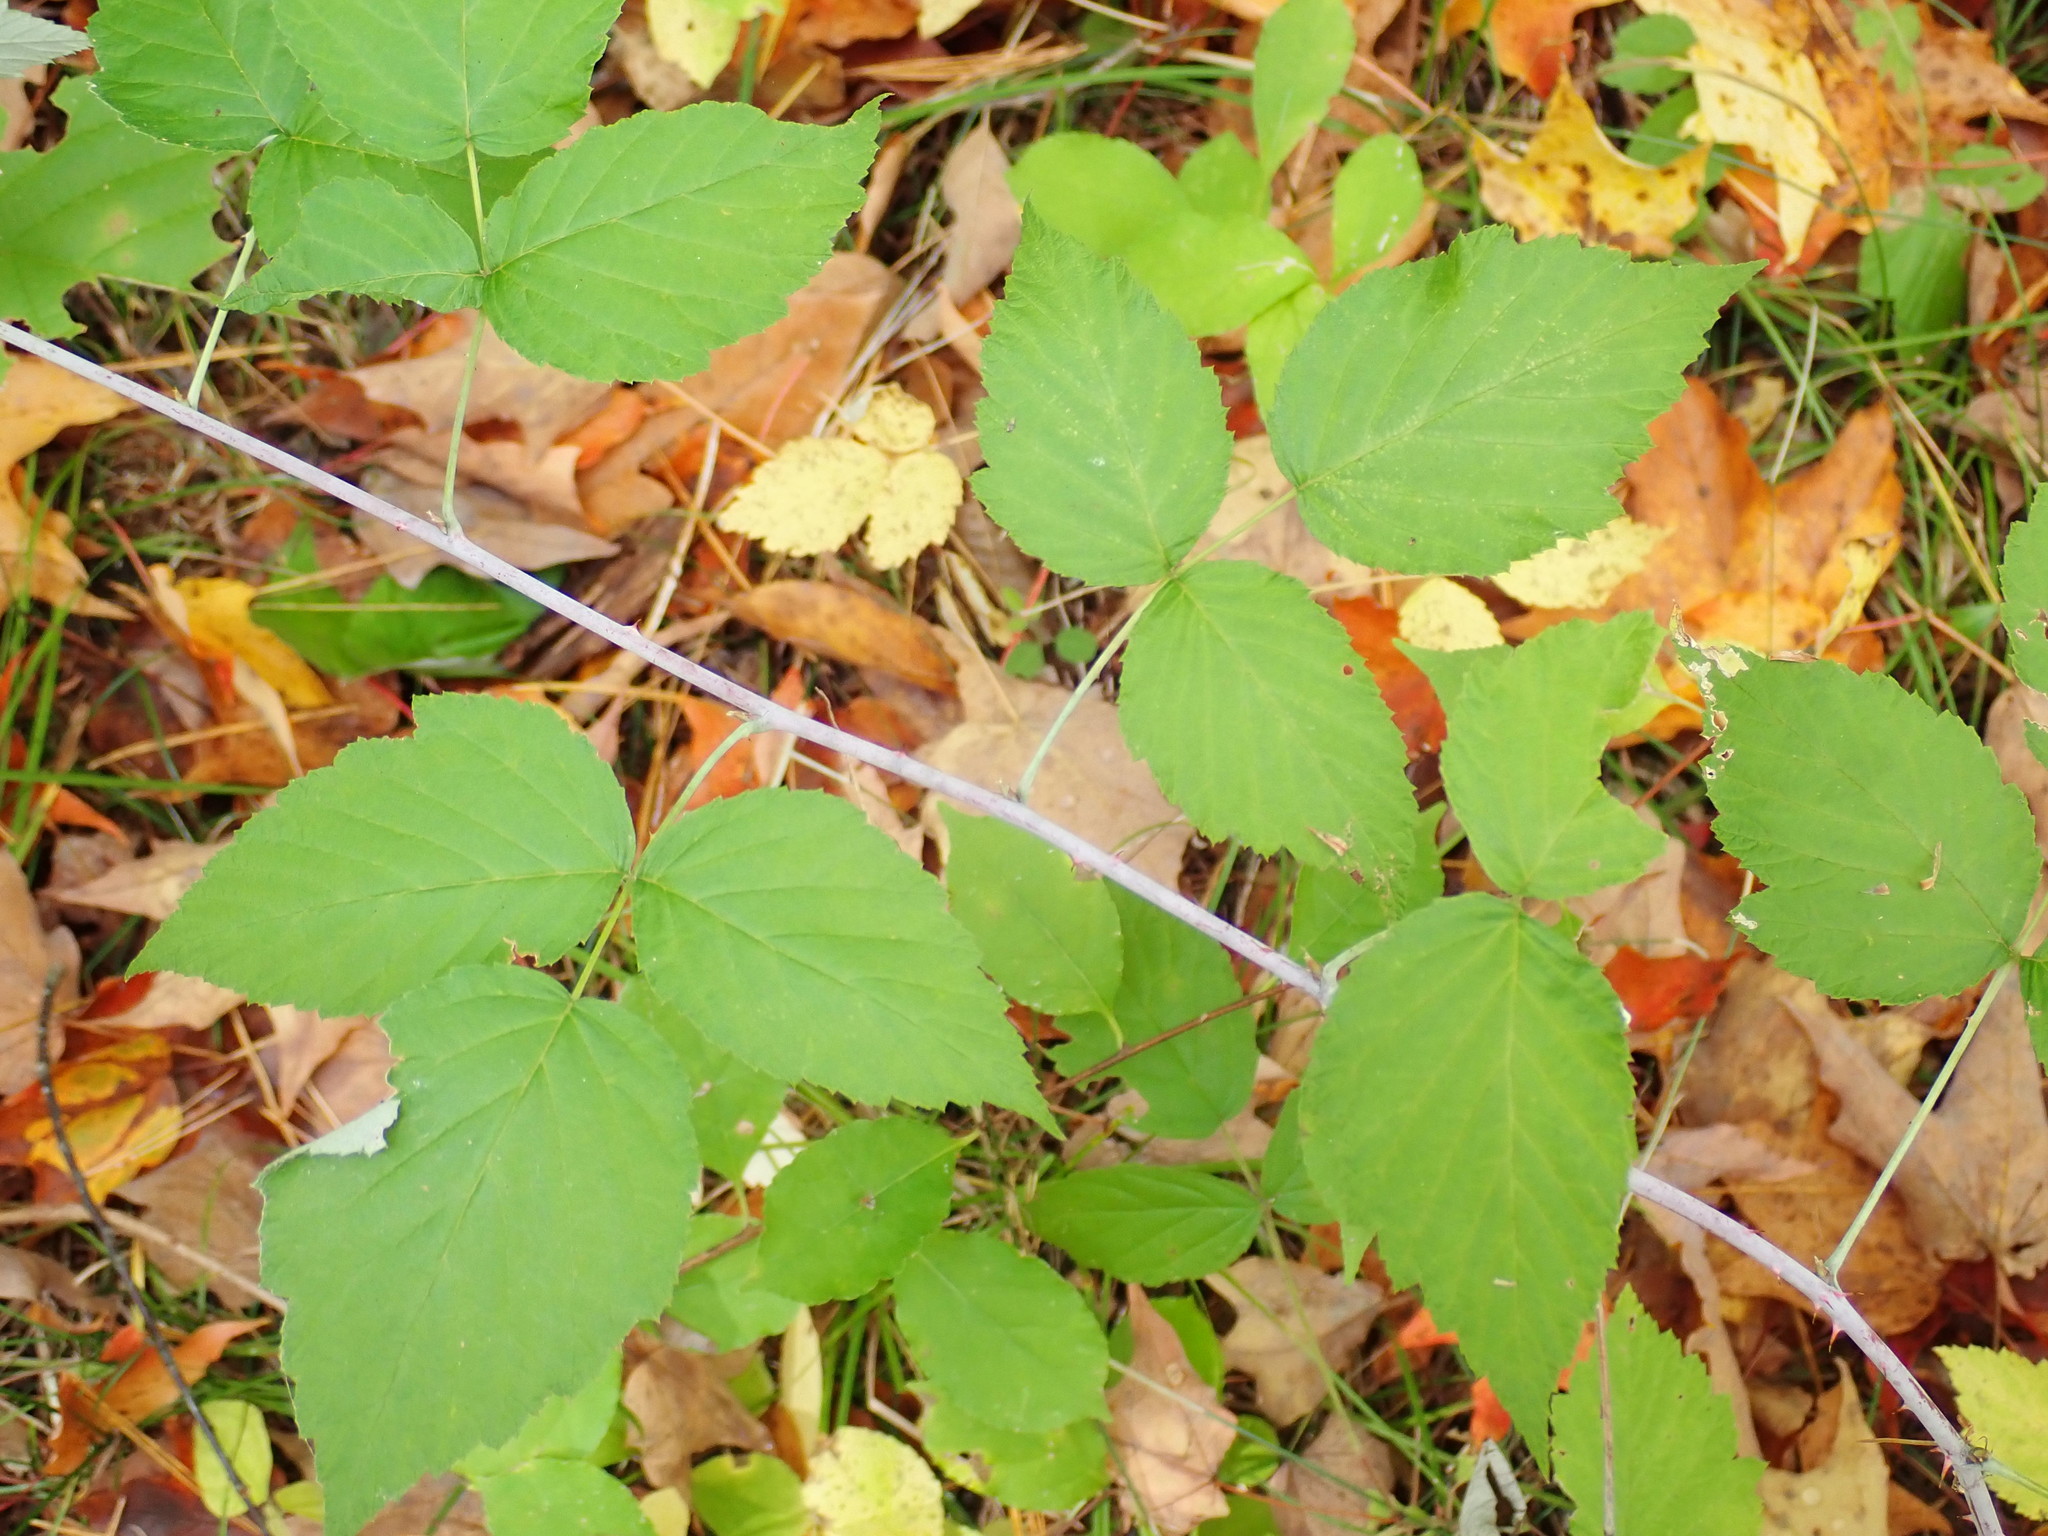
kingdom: Plantae
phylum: Tracheophyta
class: Magnoliopsida
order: Rosales
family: Rosaceae
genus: Rubus
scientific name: Rubus occidentalis
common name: Black raspberry
